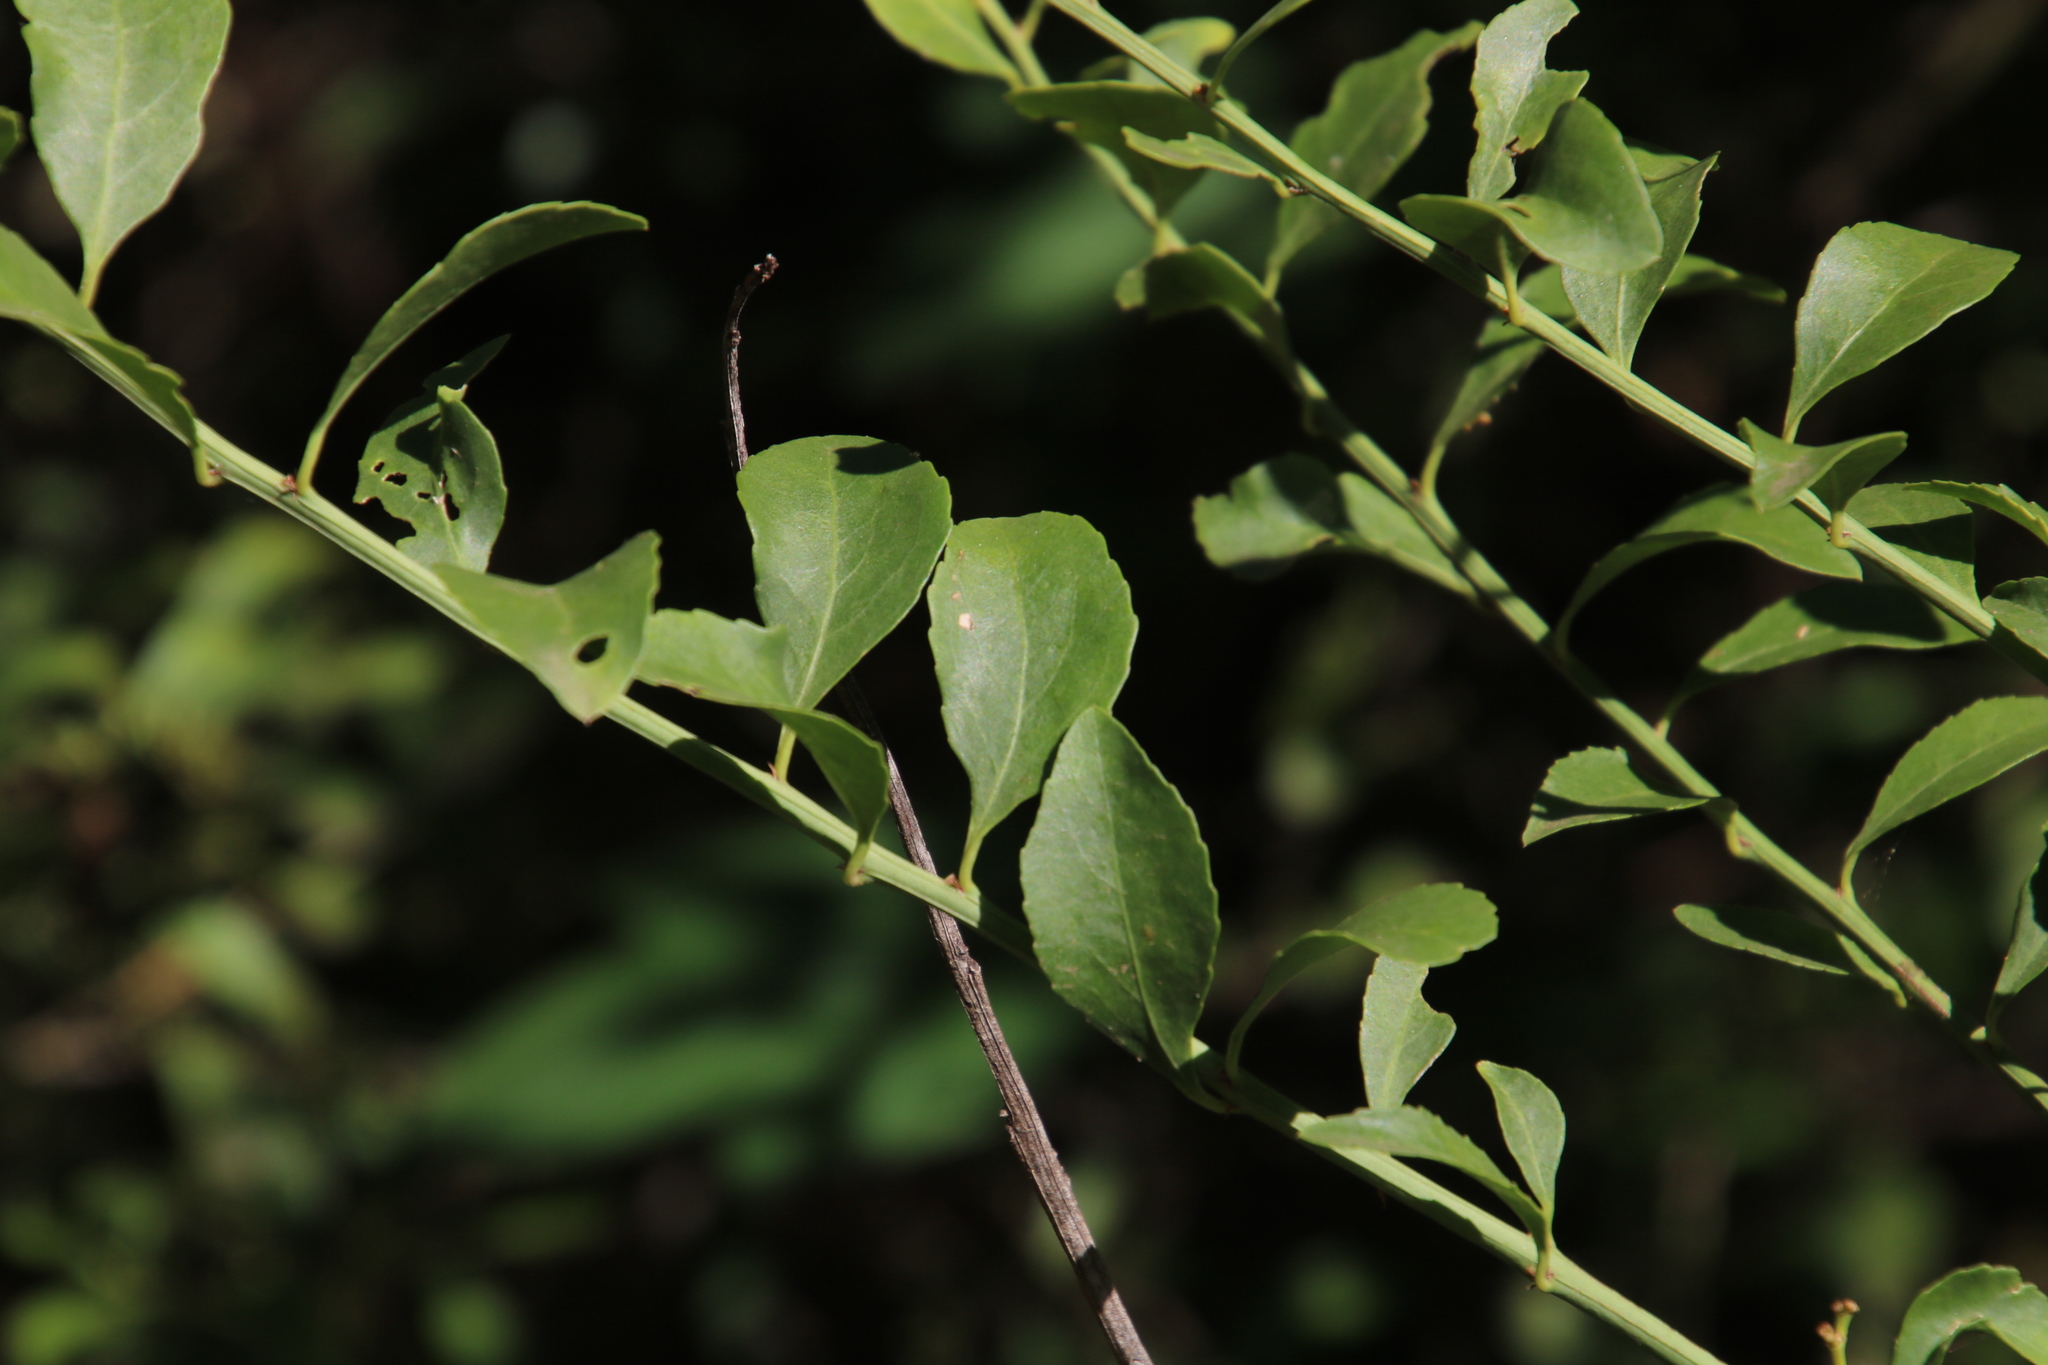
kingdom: Plantae
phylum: Tracheophyta
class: Magnoliopsida
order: Celastrales
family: Celastraceae
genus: Gymnosporia
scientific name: Gymnosporia buxifolia
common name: Common spike-thorn
